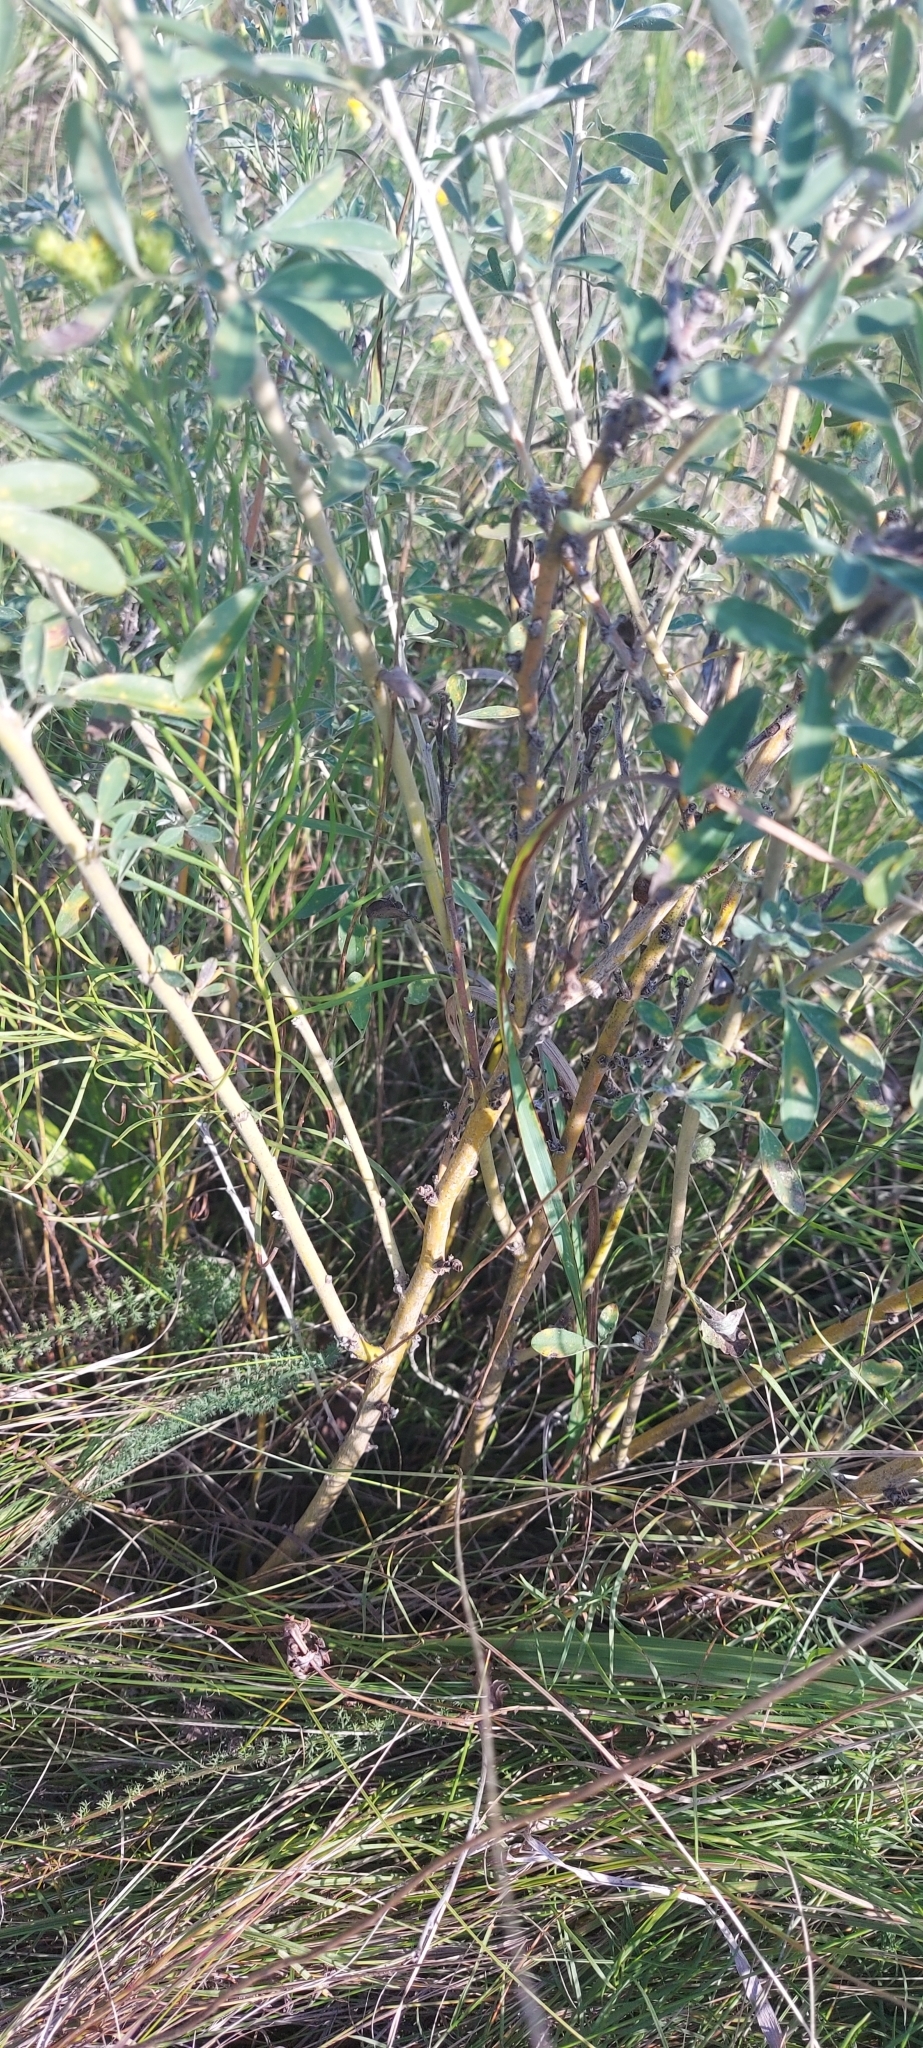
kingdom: Plantae
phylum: Tracheophyta
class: Magnoliopsida
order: Fabales
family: Fabaceae
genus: Chamaecytisus
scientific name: Chamaecytisus ruthenicus
